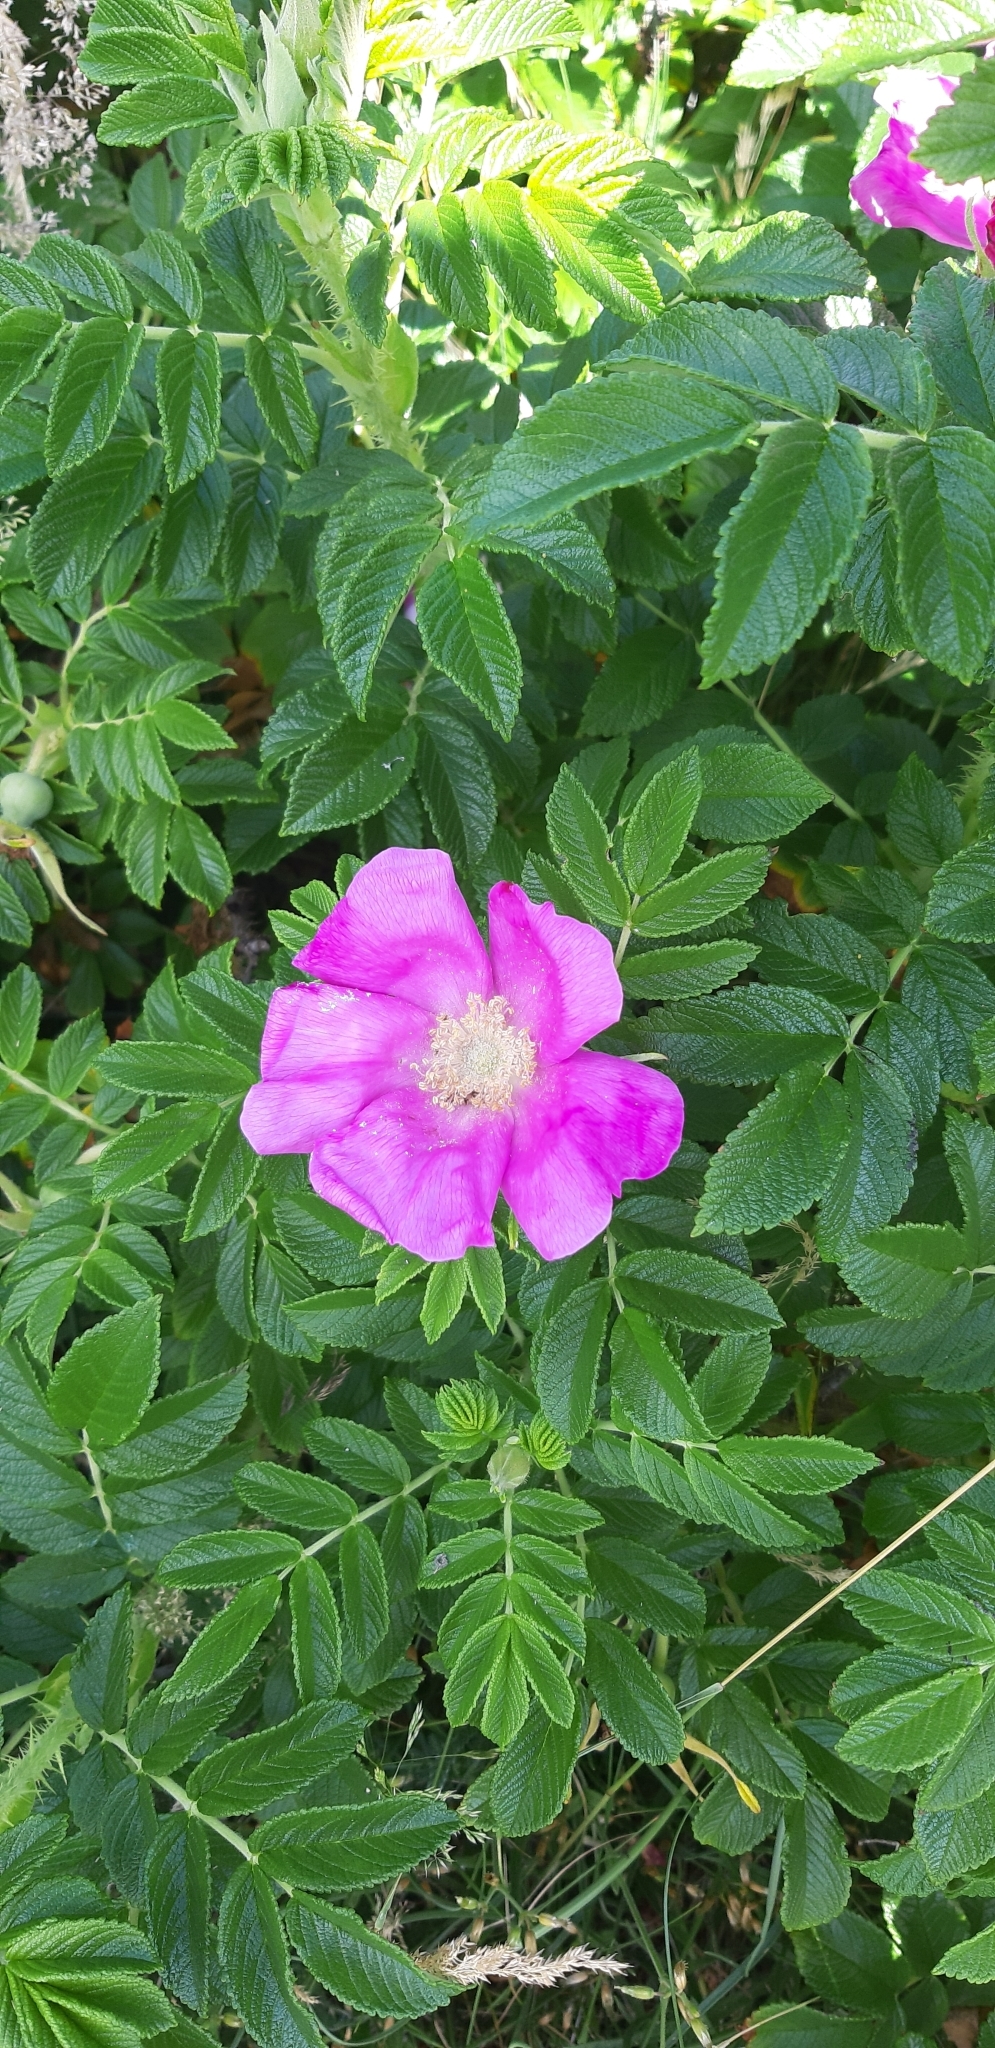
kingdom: Plantae
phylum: Tracheophyta
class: Magnoliopsida
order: Rosales
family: Rosaceae
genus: Rosa
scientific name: Rosa rugosa
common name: Japanese rose
